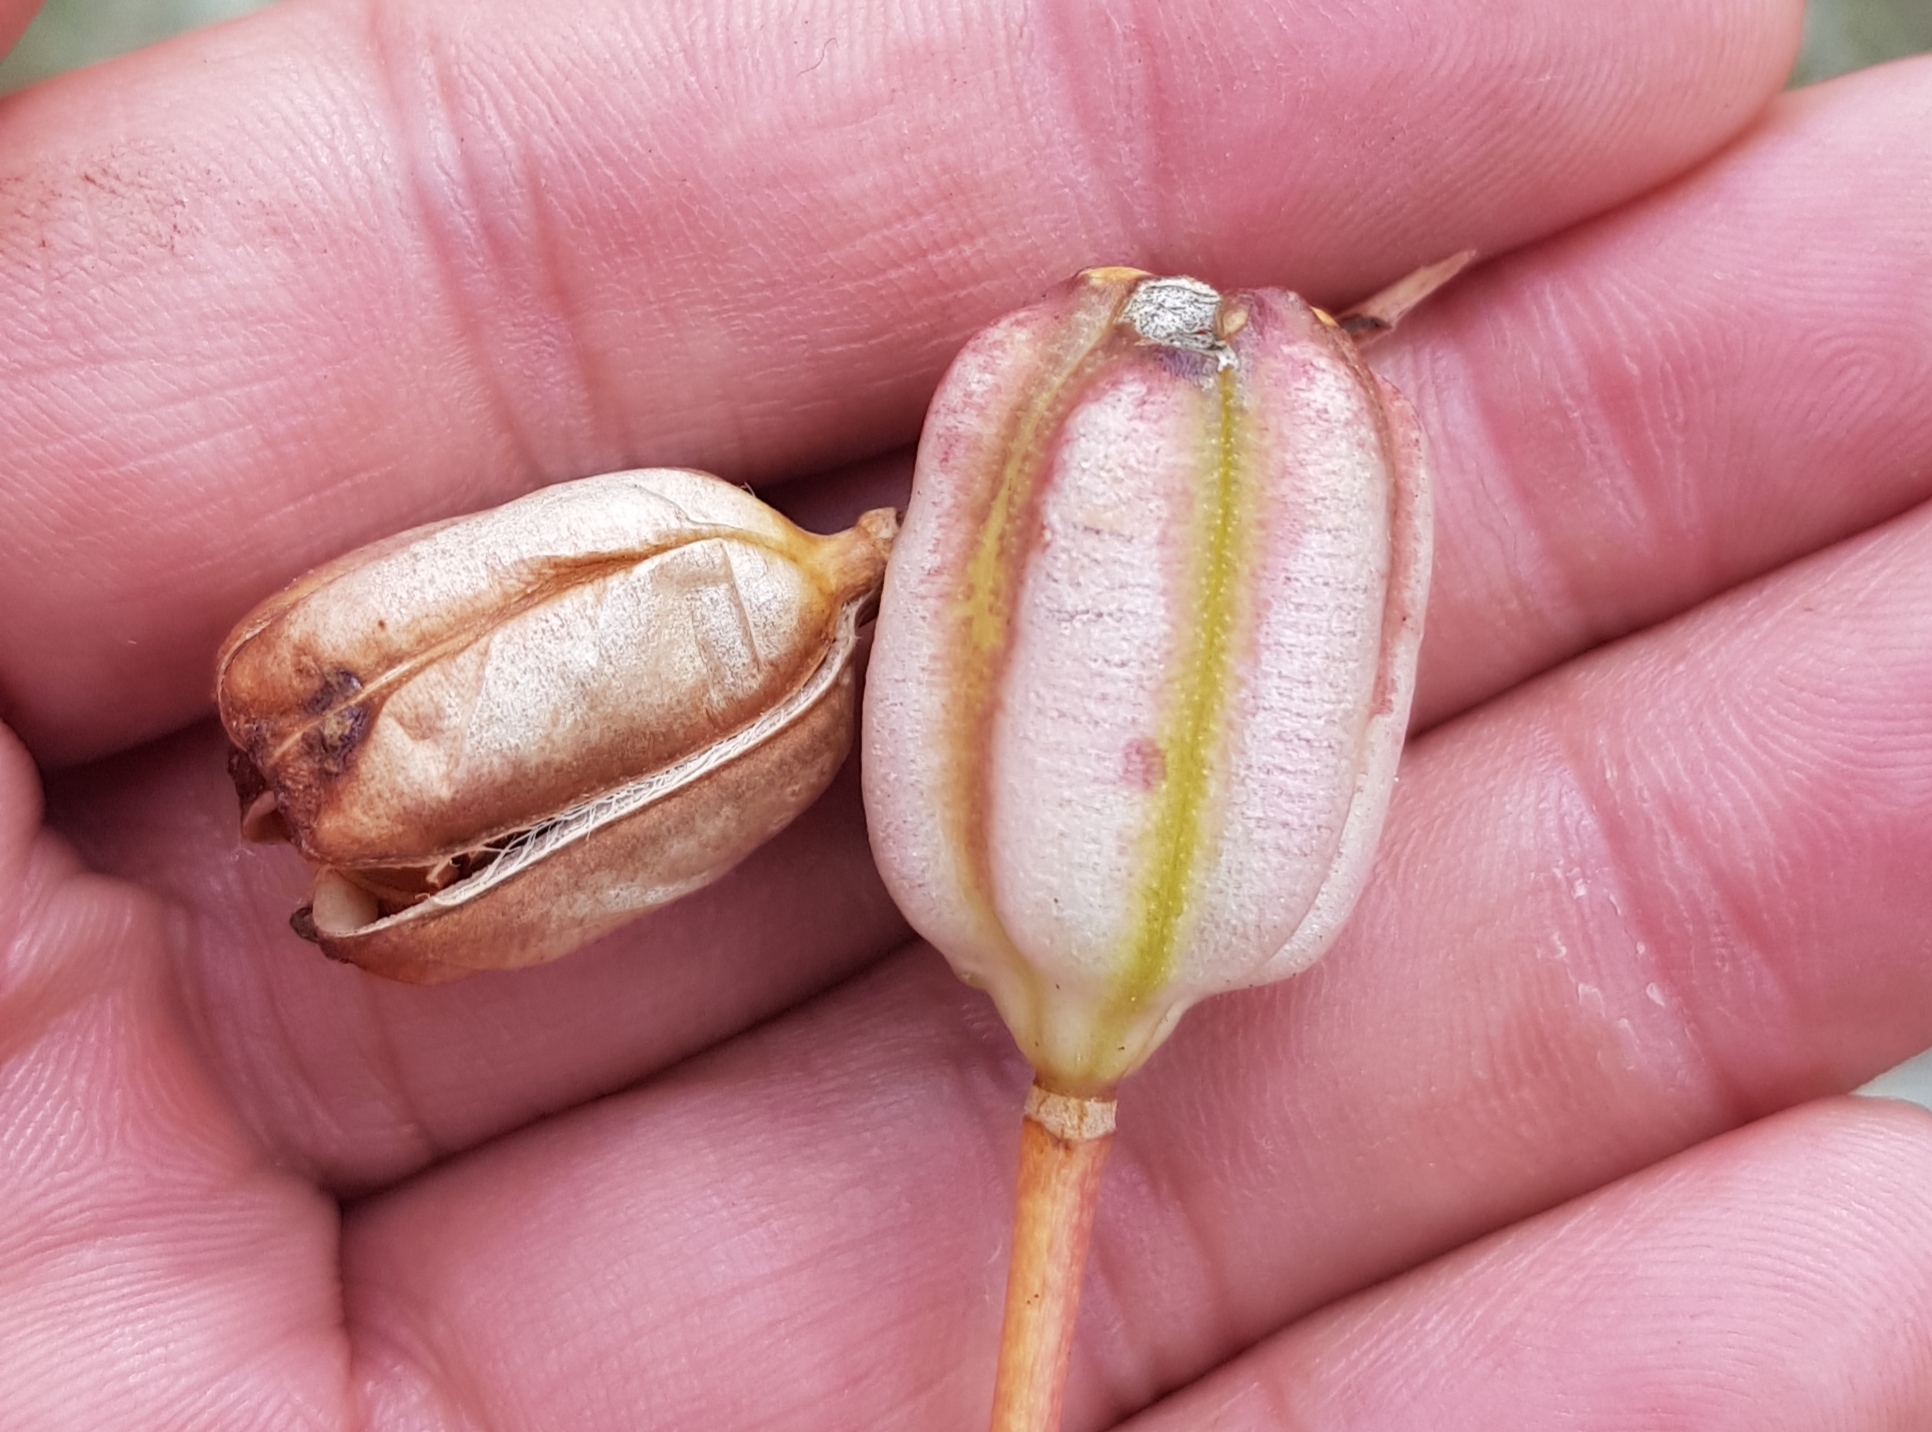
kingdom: Plantae
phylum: Tracheophyta
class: Liliopsida
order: Liliales
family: Liliaceae
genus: Lilium
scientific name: Lilium pumilum
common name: Coral lily
